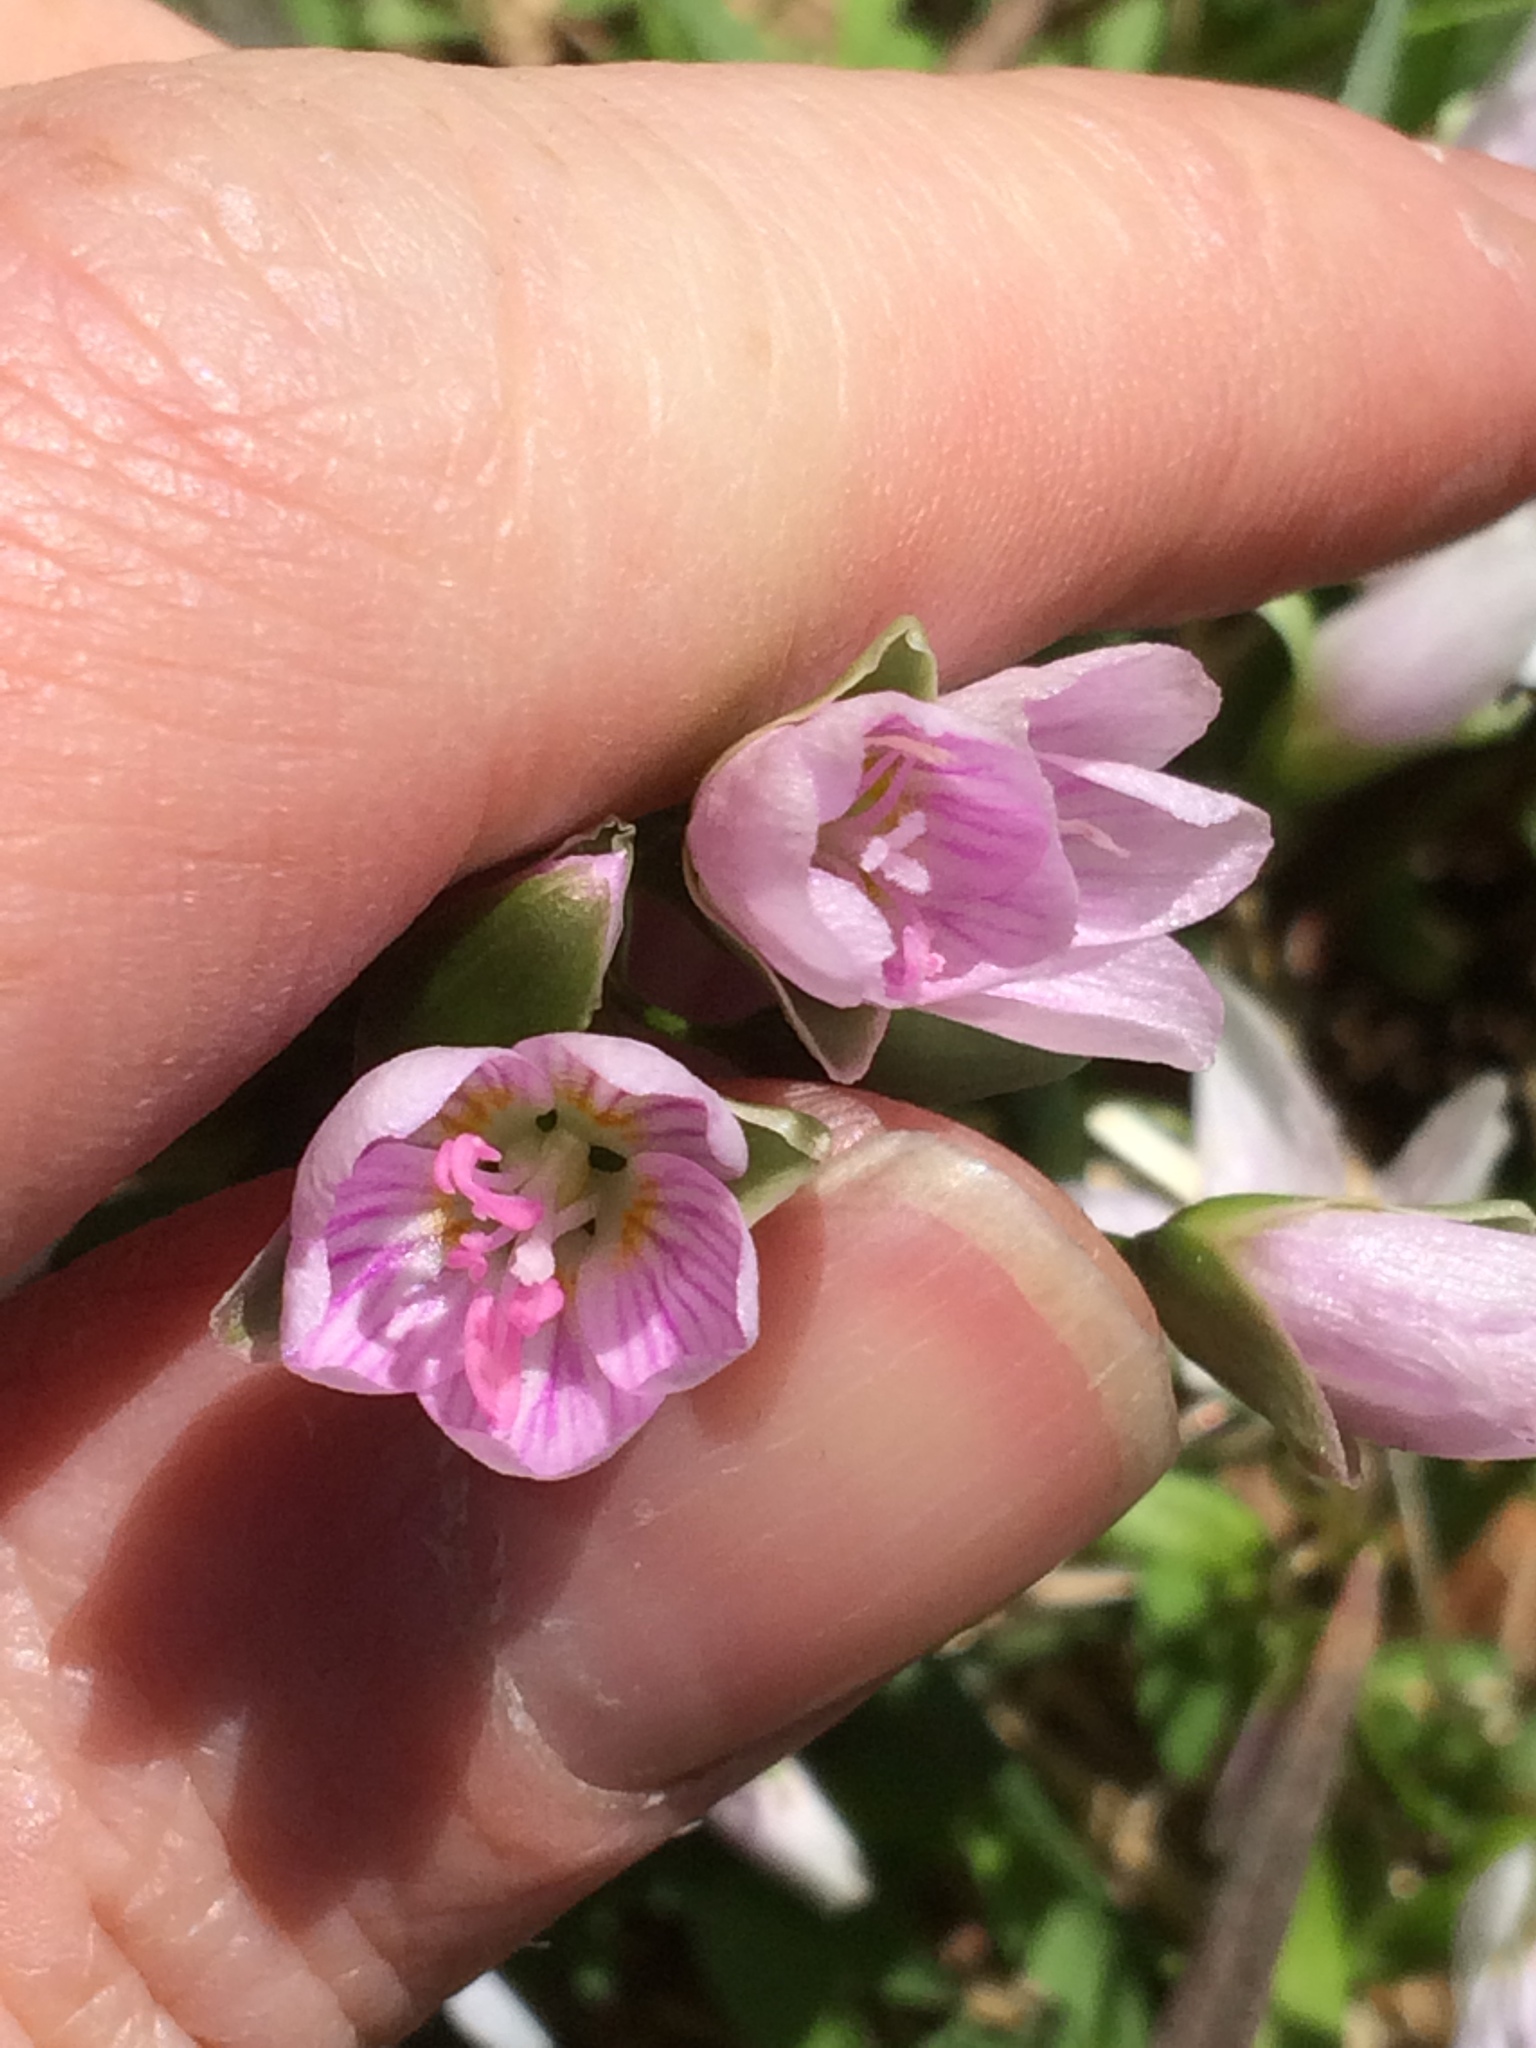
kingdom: Plantae
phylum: Tracheophyta
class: Magnoliopsida
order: Caryophyllales
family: Montiaceae
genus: Claytonia
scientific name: Claytonia virginica
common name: Virginia springbeauty
